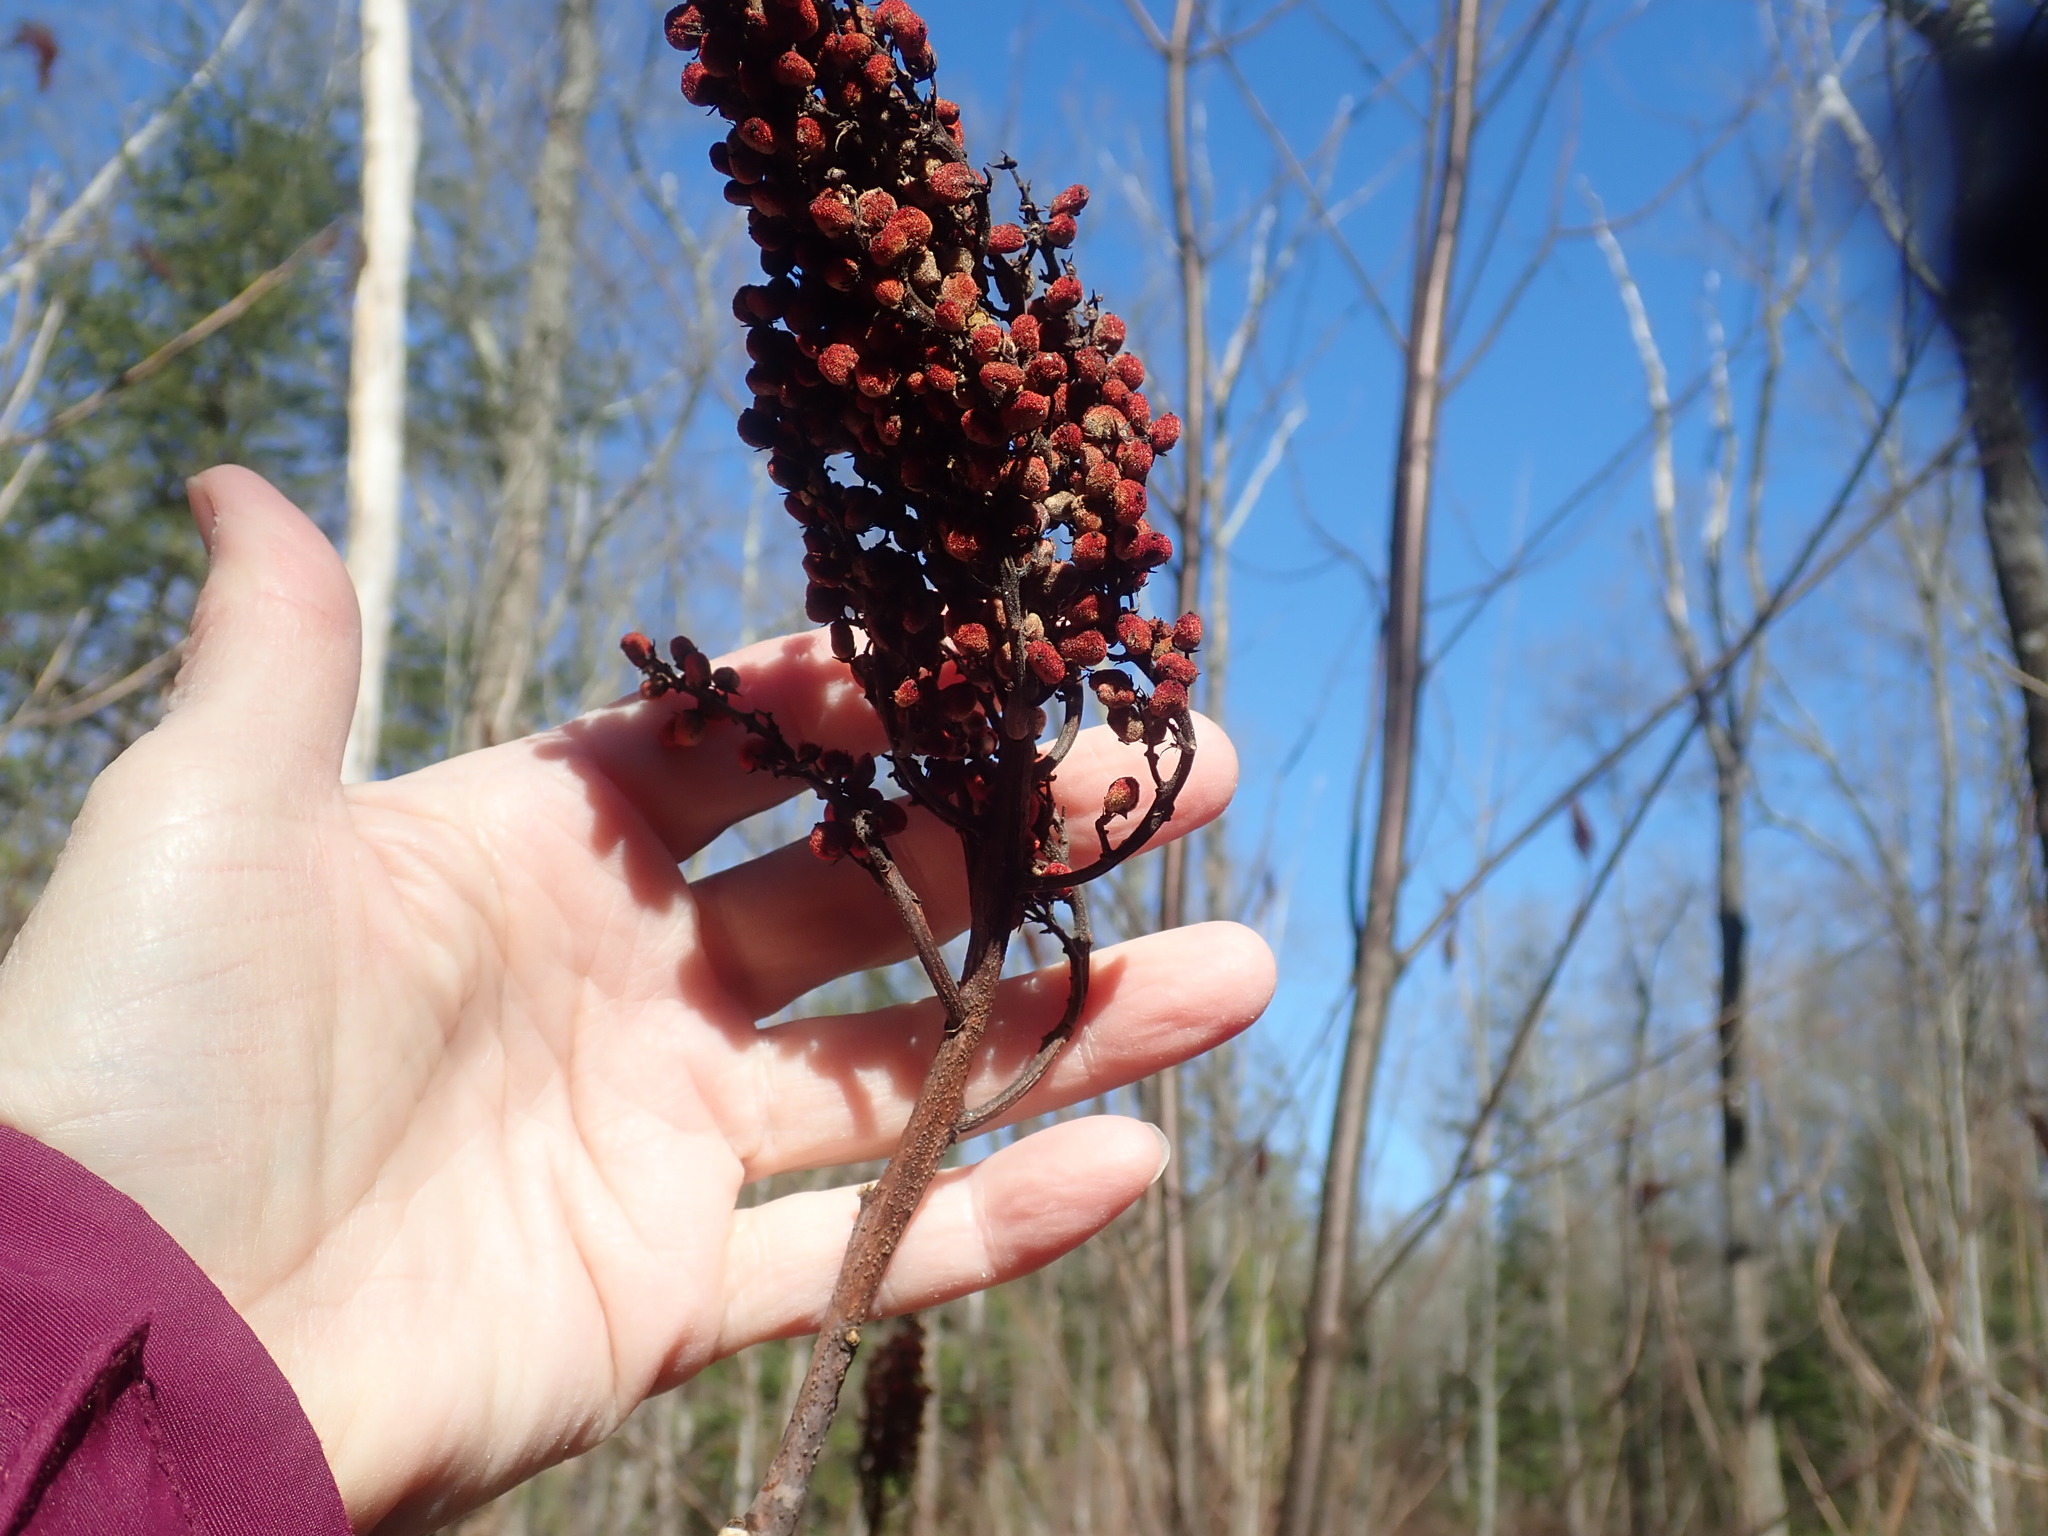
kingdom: Plantae
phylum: Tracheophyta
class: Magnoliopsida
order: Sapindales
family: Anacardiaceae
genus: Rhus
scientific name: Rhus glabra
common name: Scarlet sumac
